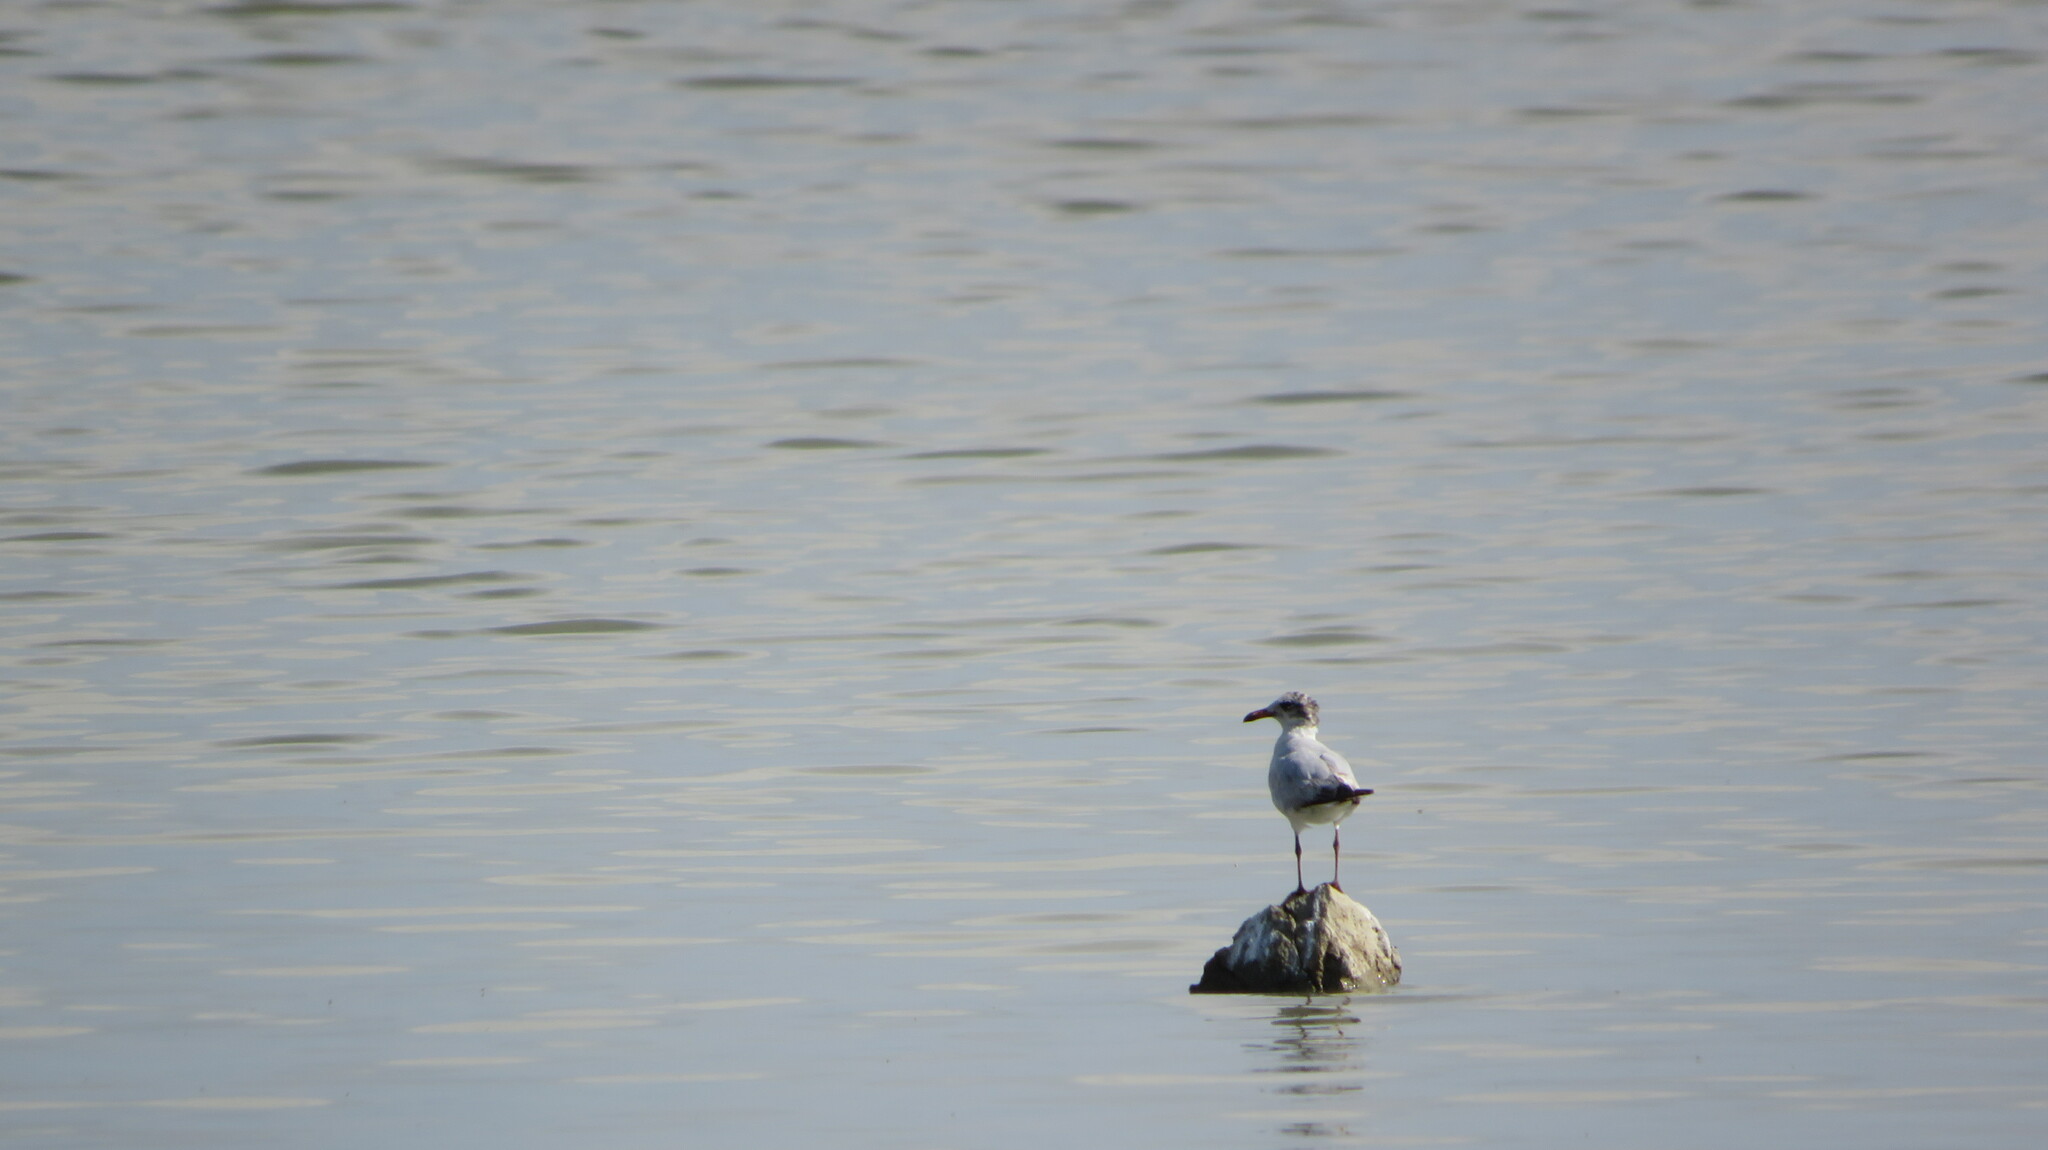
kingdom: Animalia
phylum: Chordata
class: Aves
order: Charadriiformes
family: Laridae
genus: Chroicocephalus
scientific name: Chroicocephalus ridibundus
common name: Black-headed gull
